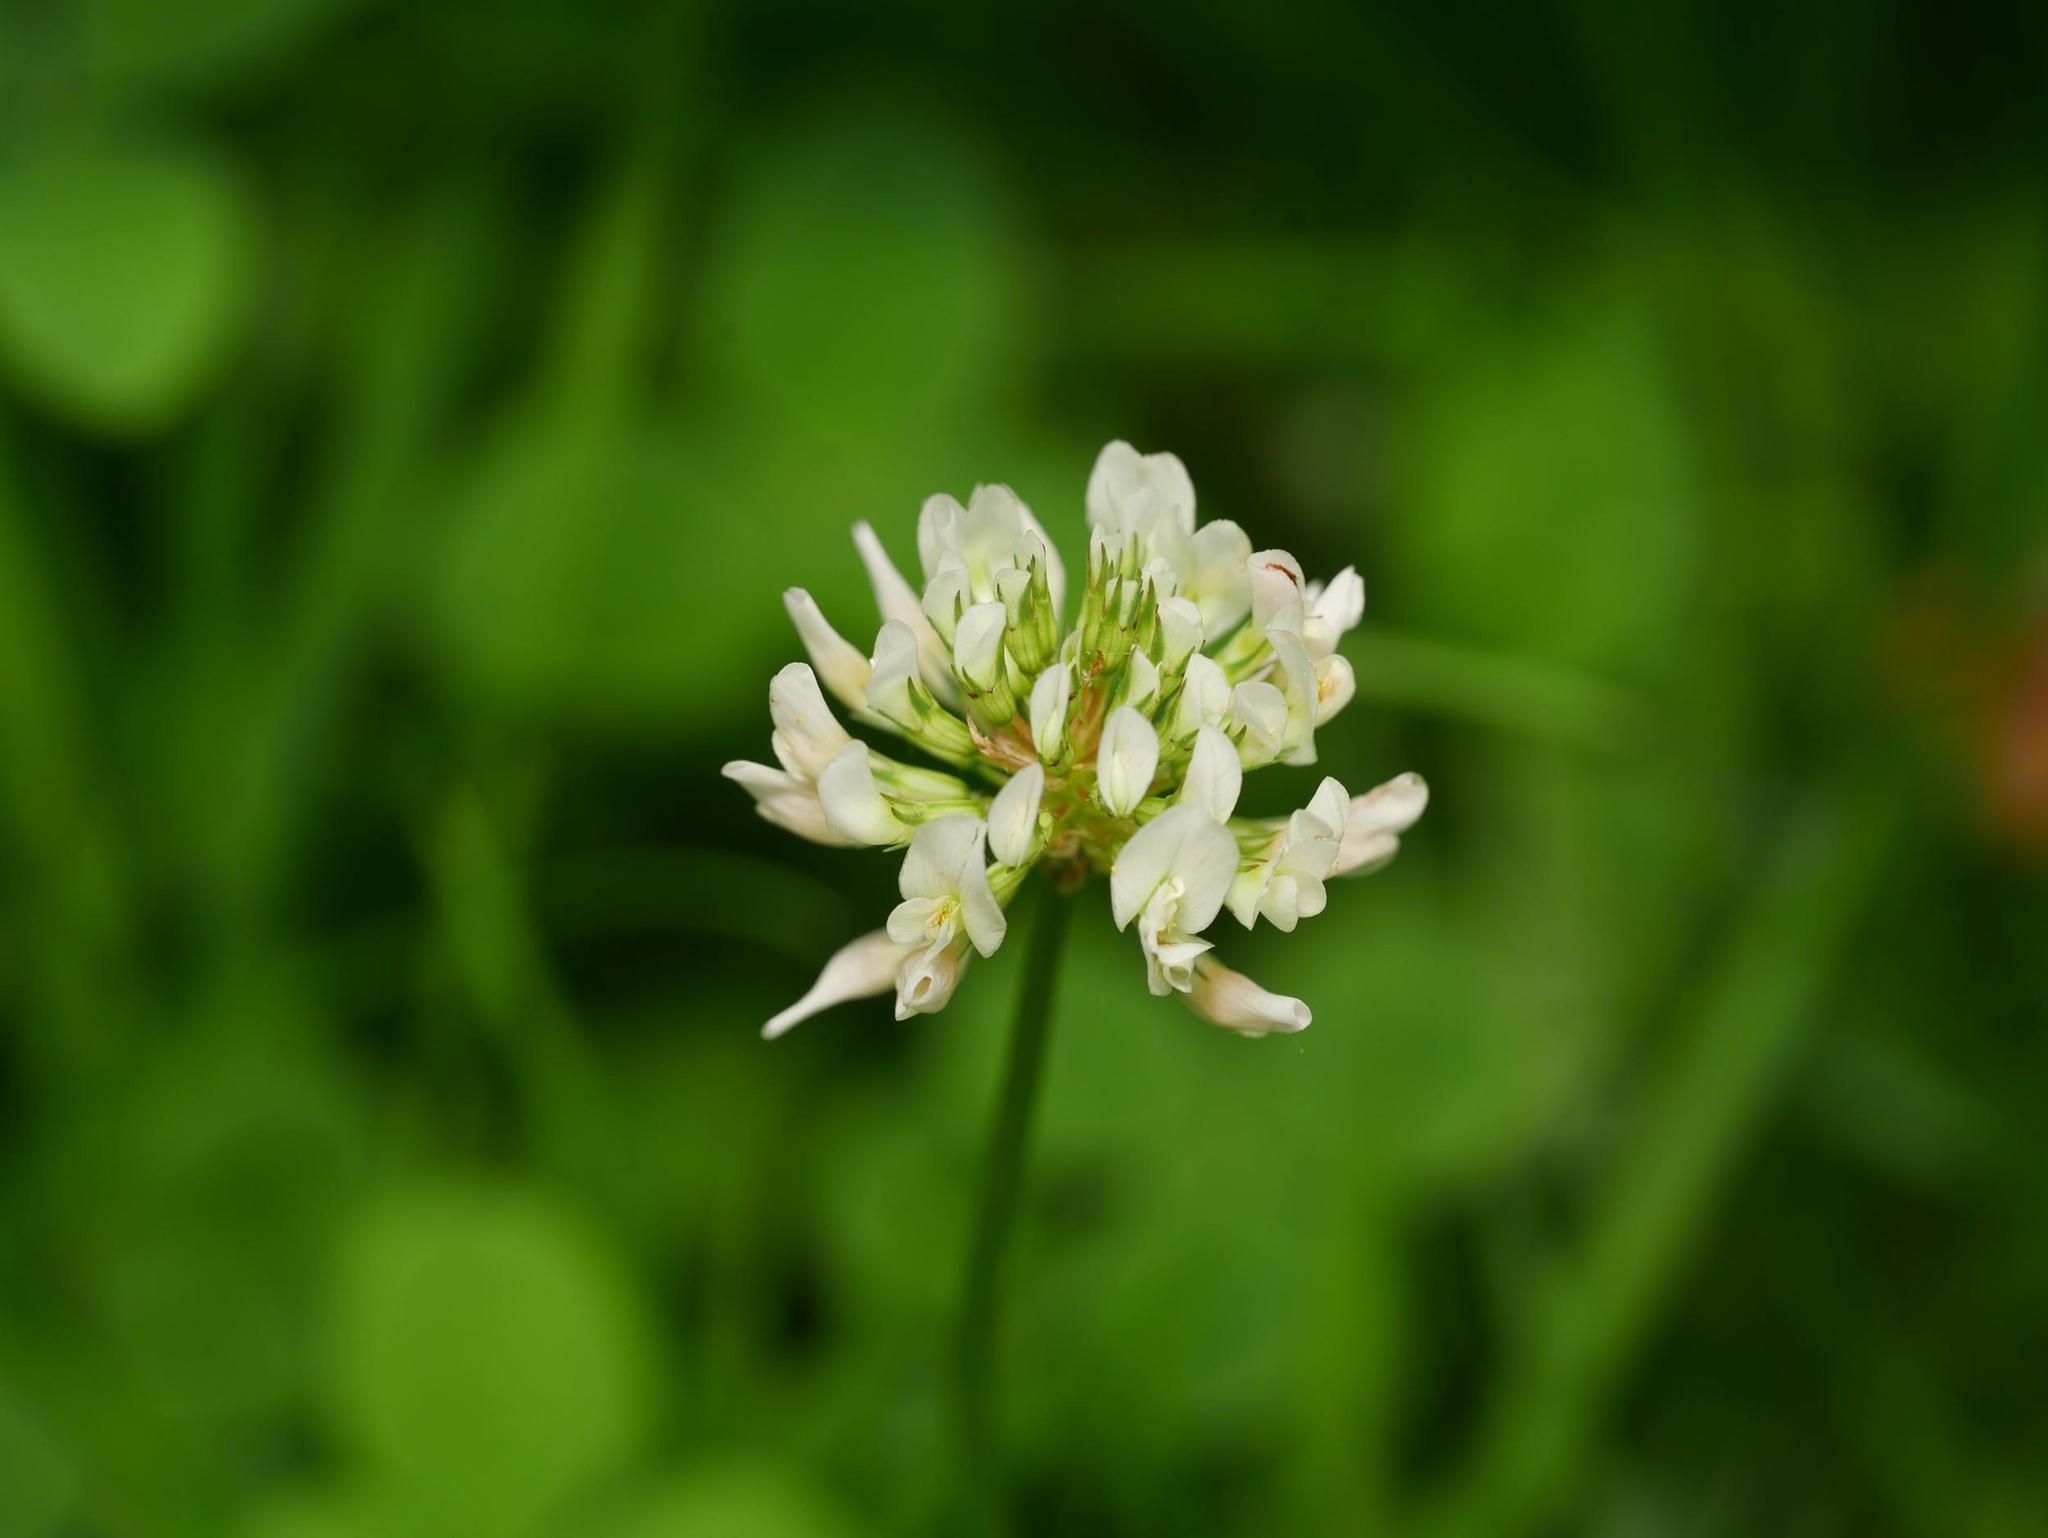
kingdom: Plantae
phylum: Tracheophyta
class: Magnoliopsida
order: Fabales
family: Fabaceae
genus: Trifolium
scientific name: Trifolium repens
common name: White clover
